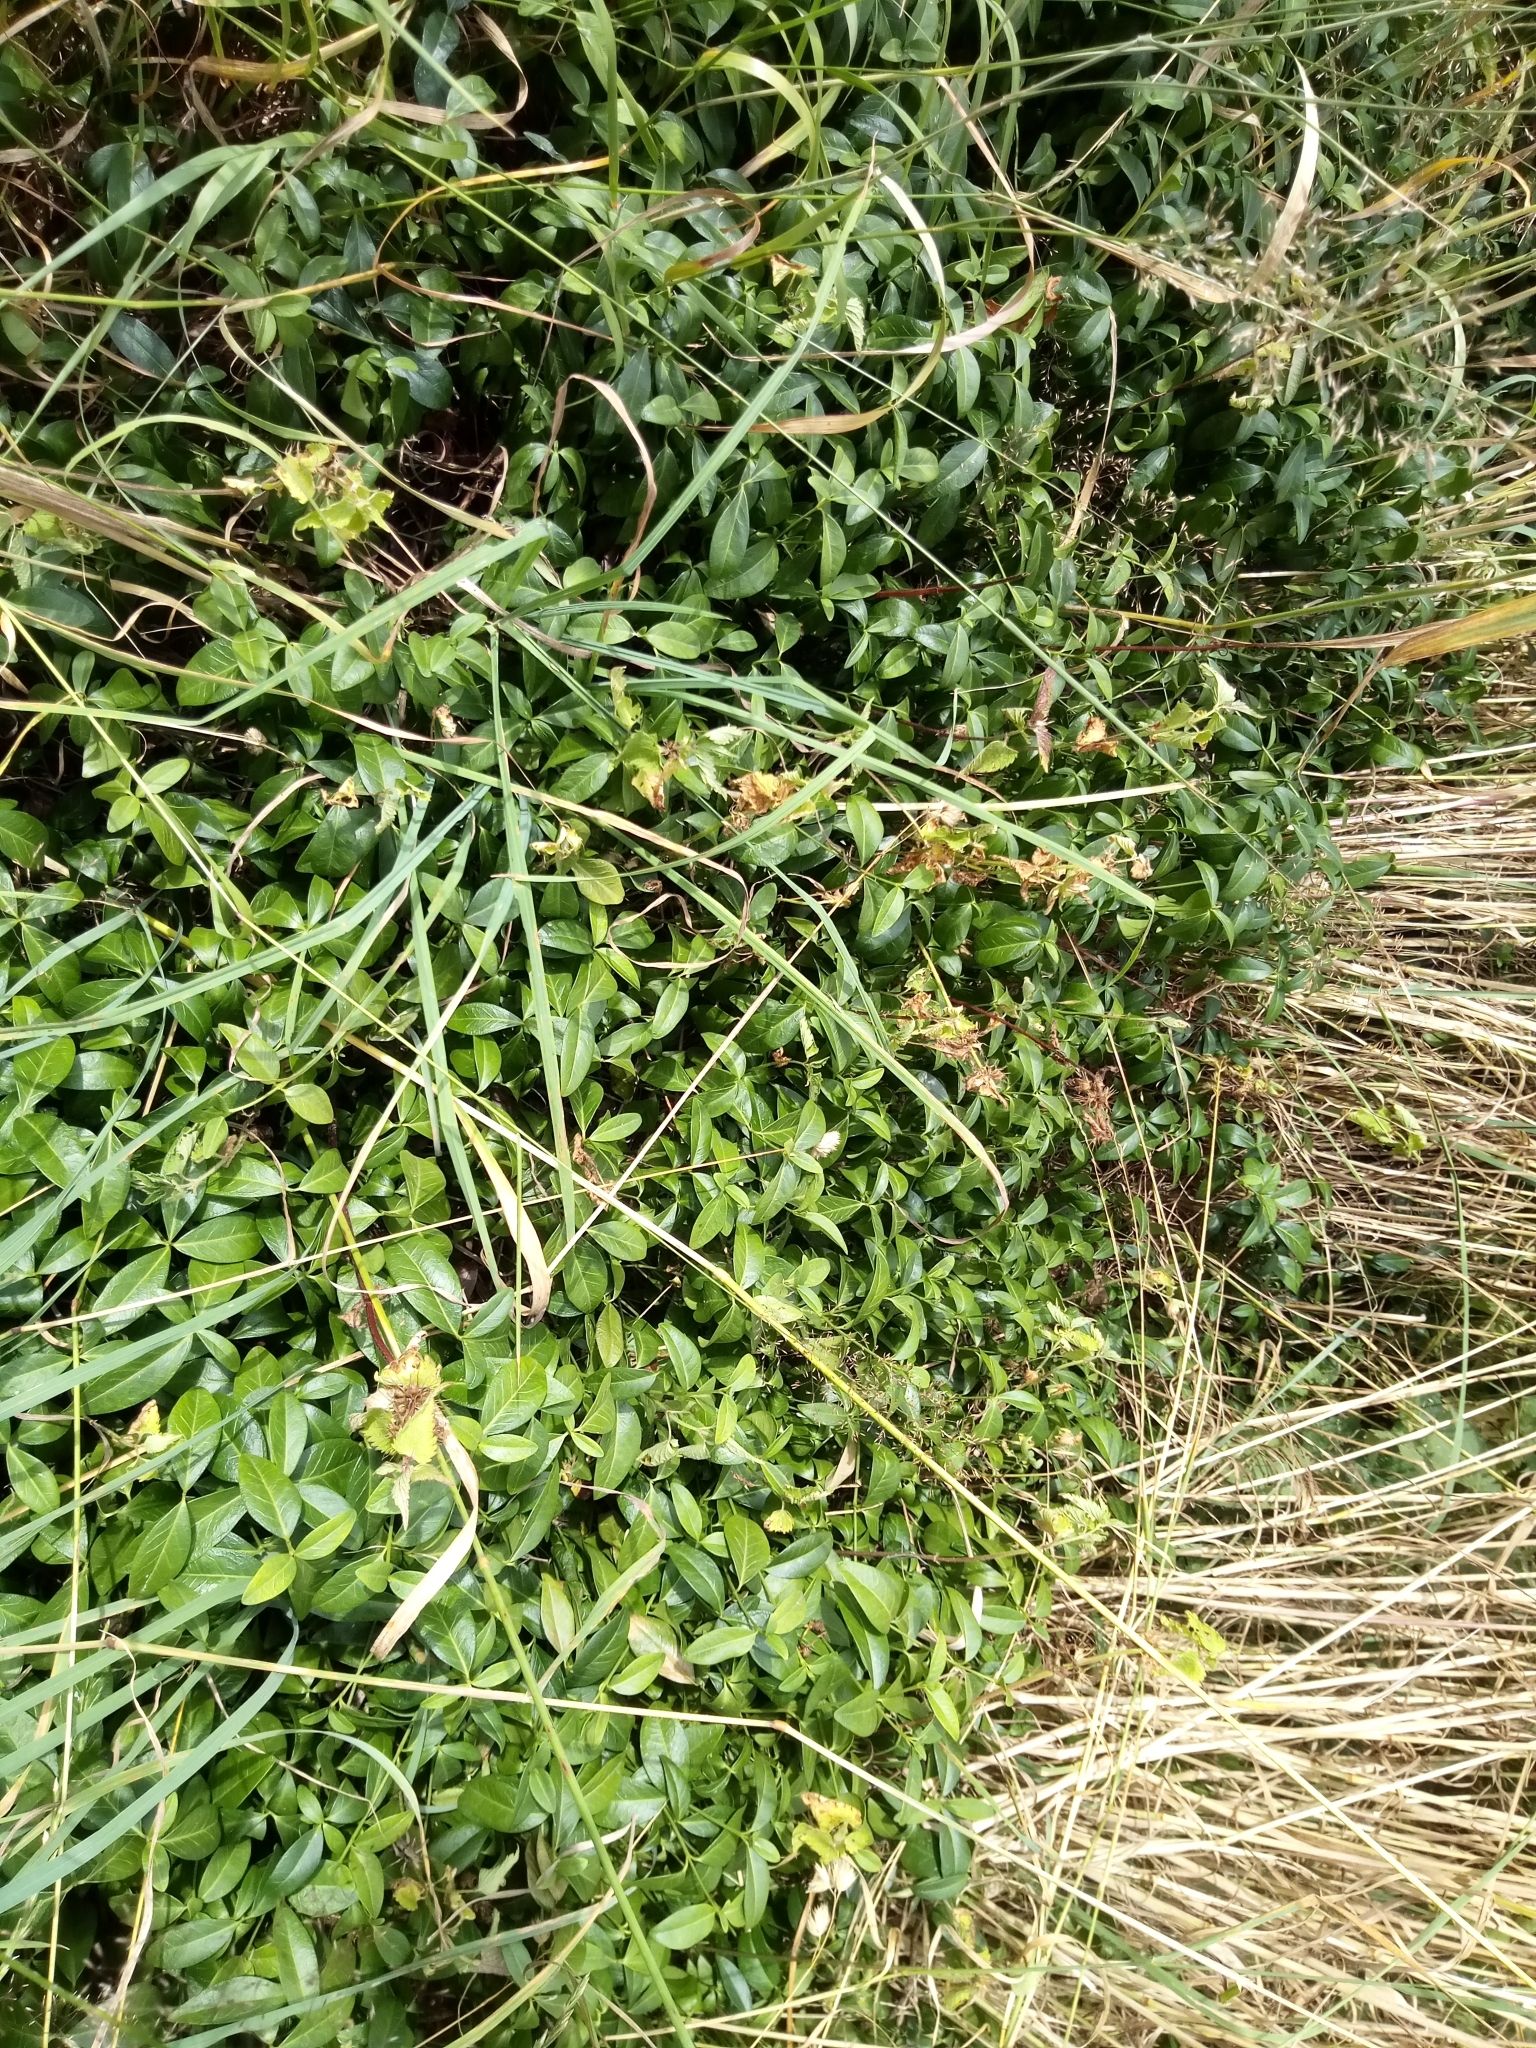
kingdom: Plantae
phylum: Tracheophyta
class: Magnoliopsida
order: Gentianales
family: Apocynaceae
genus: Vinca
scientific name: Vinca minor
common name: Lesser periwinkle
